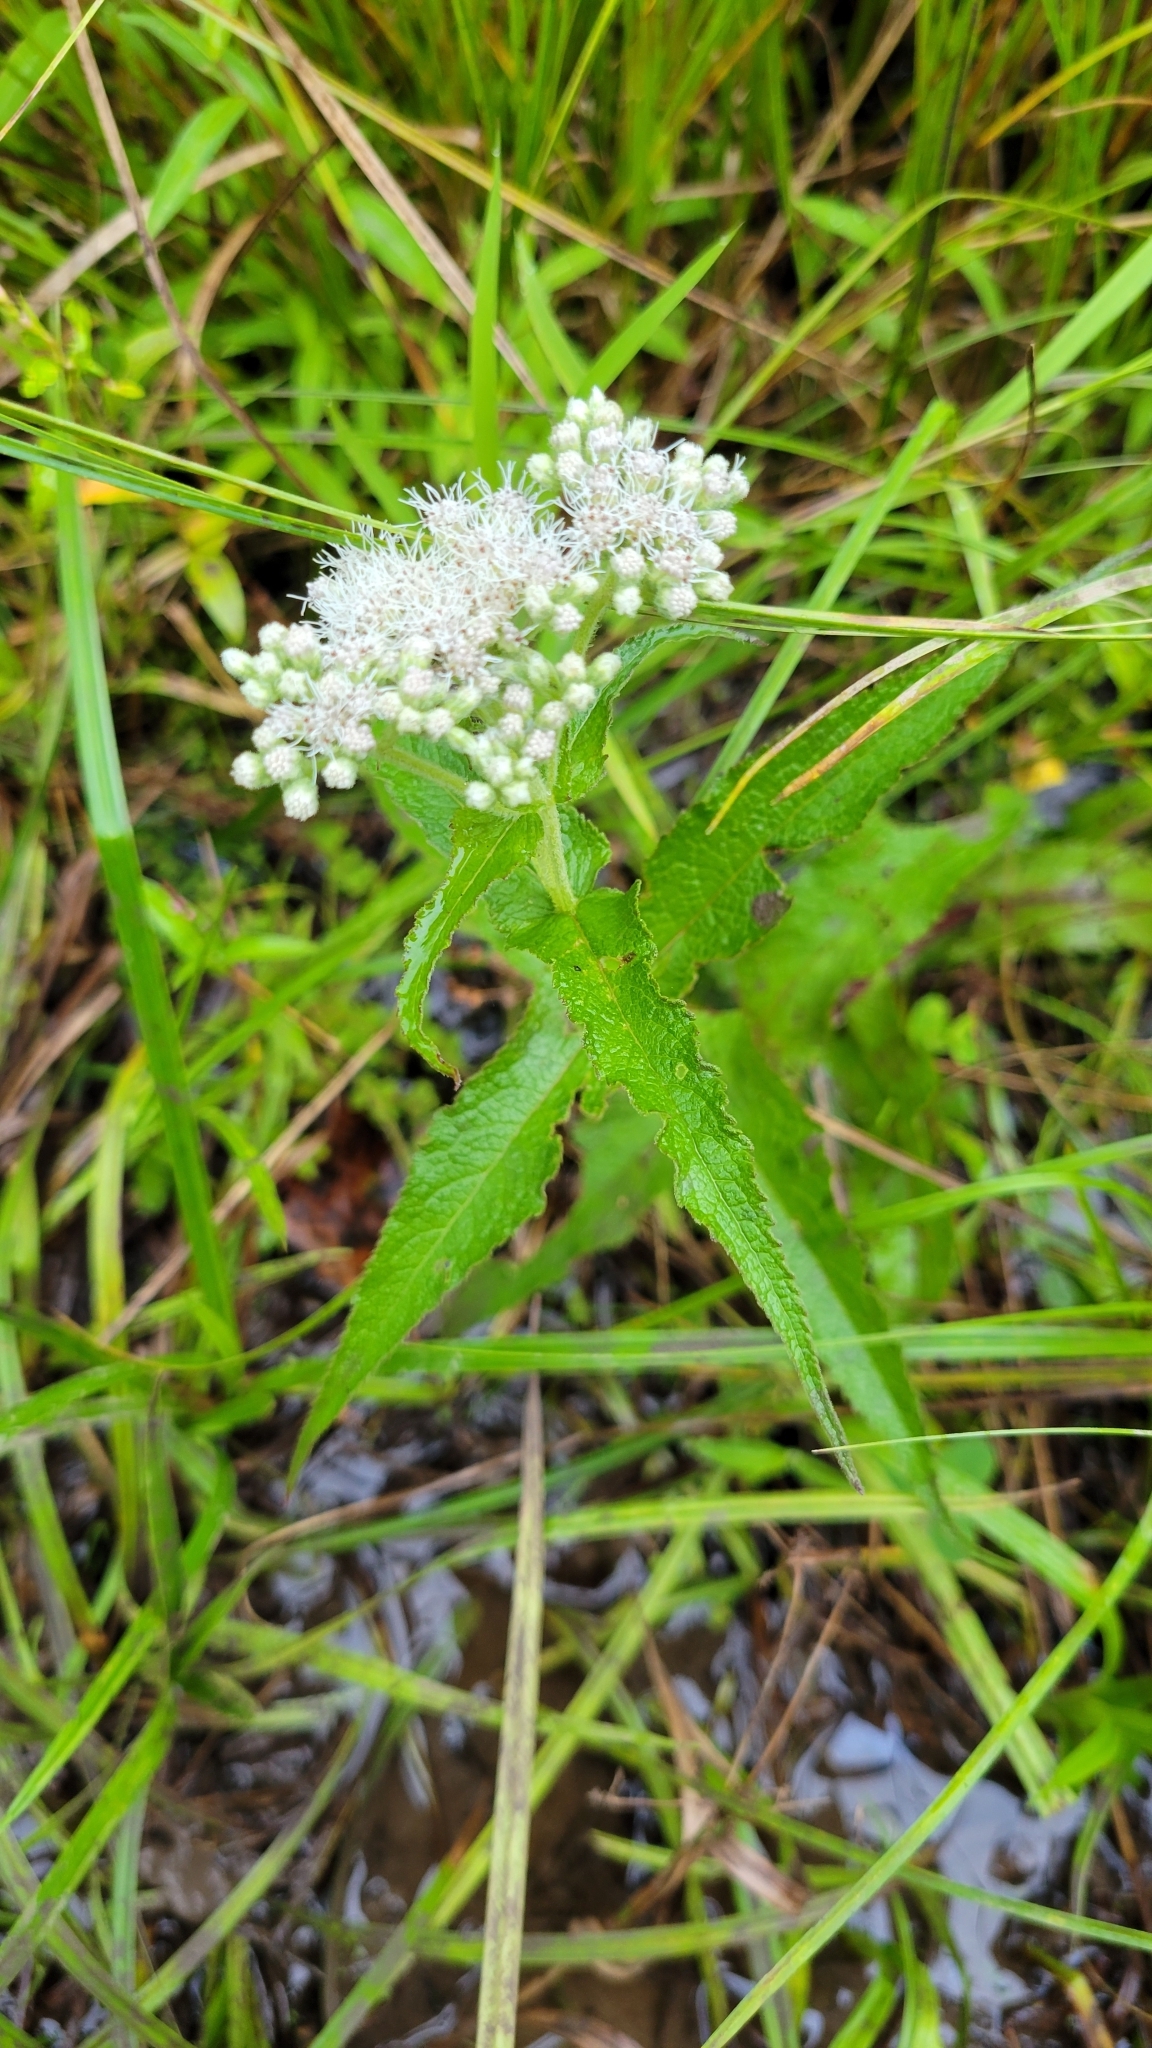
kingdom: Plantae
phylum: Tracheophyta
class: Magnoliopsida
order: Asterales
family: Asteraceae
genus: Eupatorium
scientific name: Eupatorium perfoliatum
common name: Boneset
